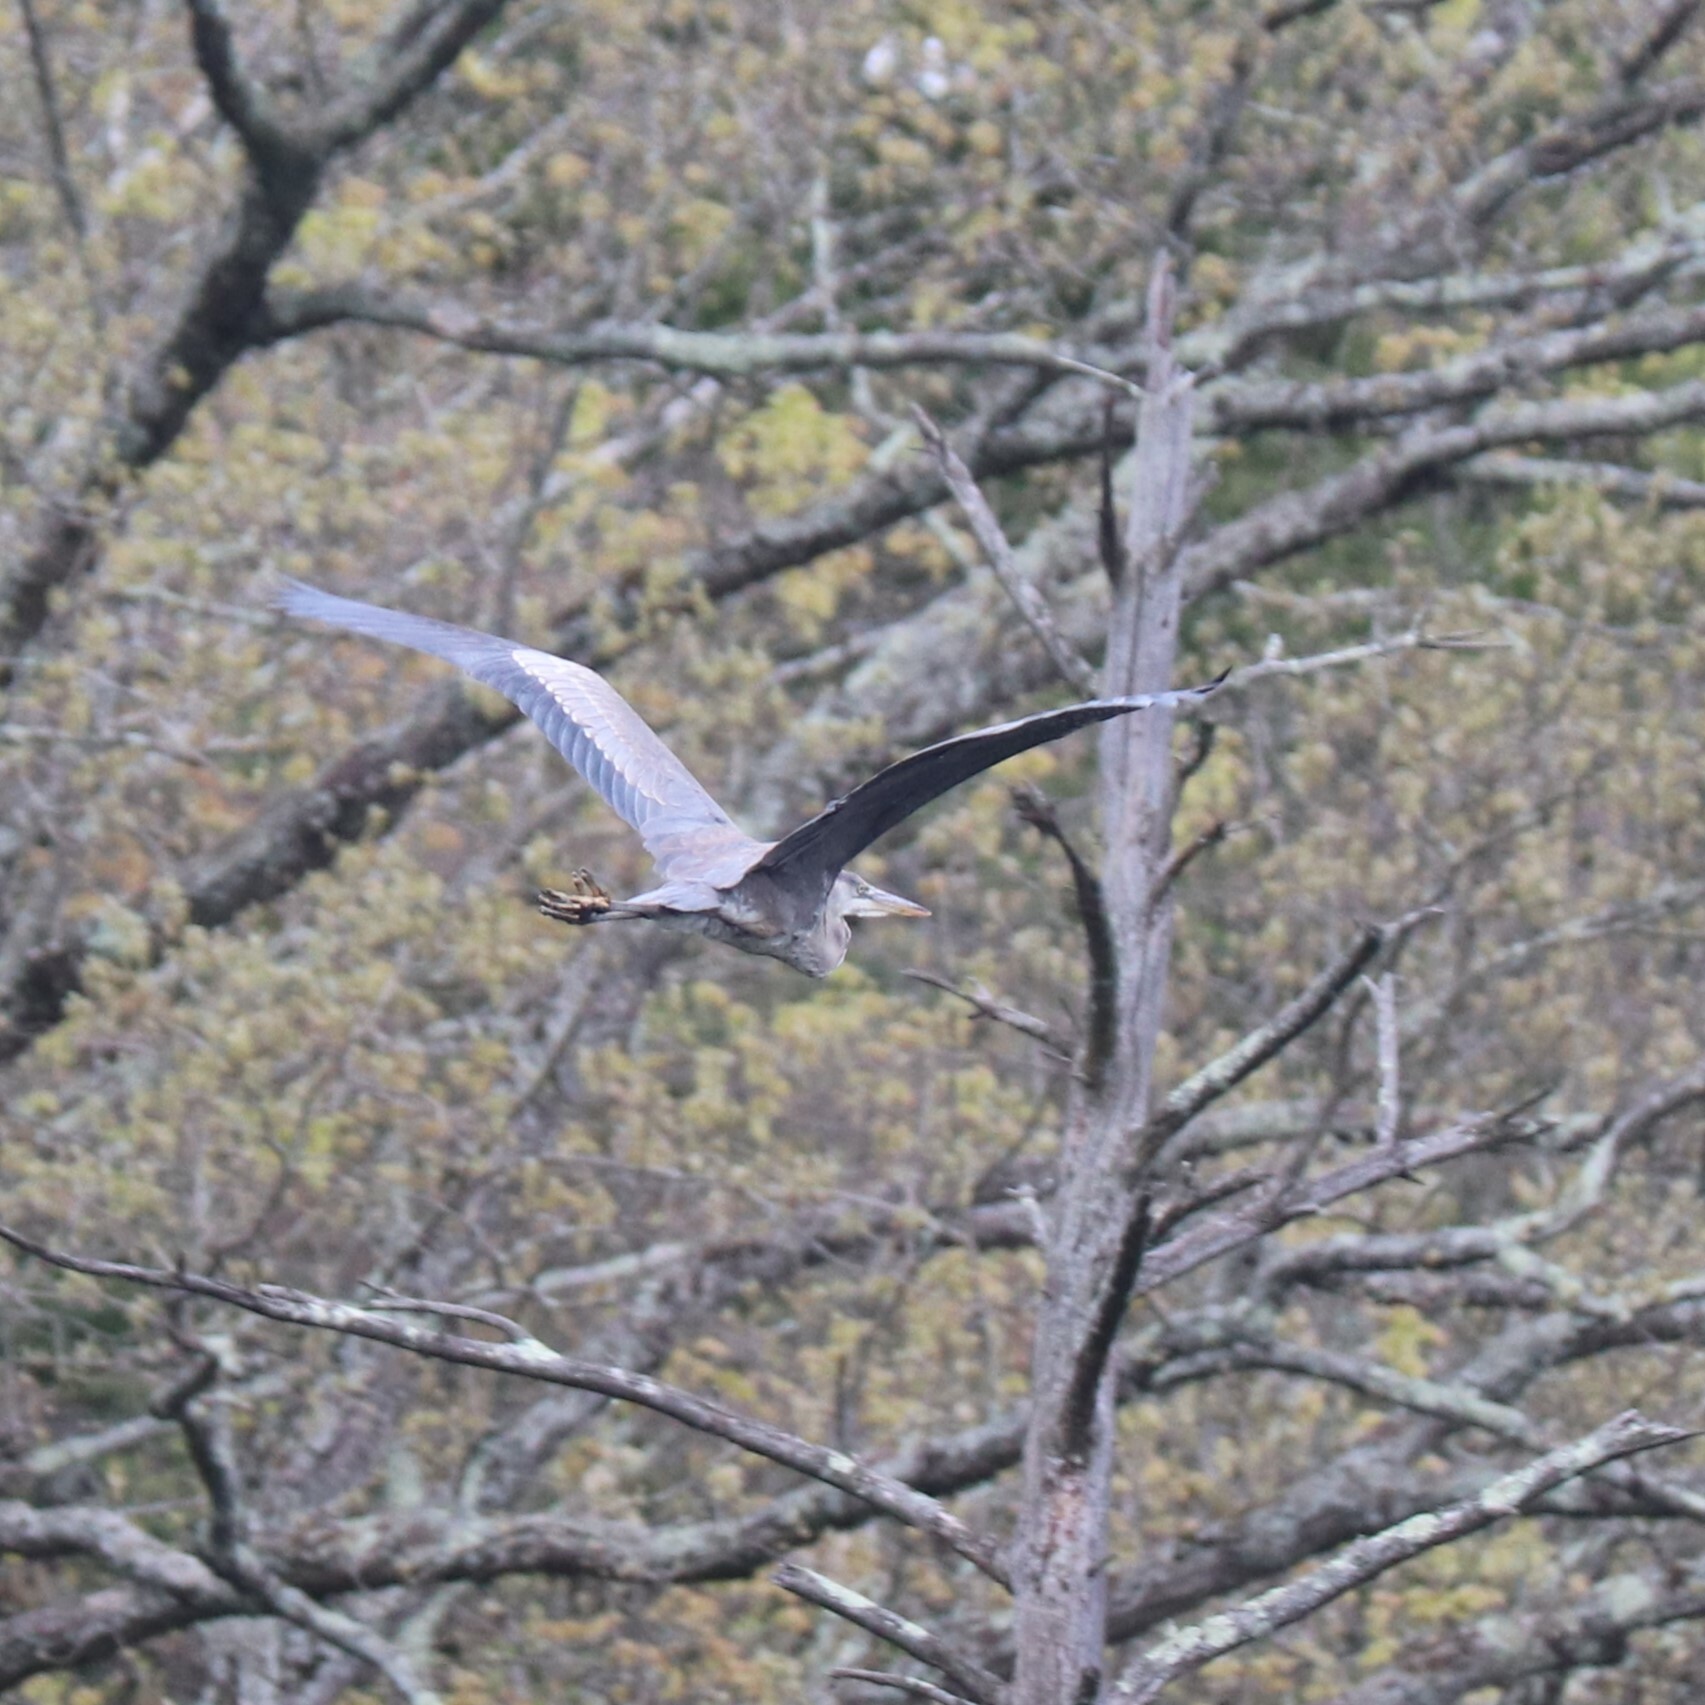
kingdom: Animalia
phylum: Chordata
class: Aves
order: Pelecaniformes
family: Ardeidae
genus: Ardea
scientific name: Ardea herodias
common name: Great blue heron
